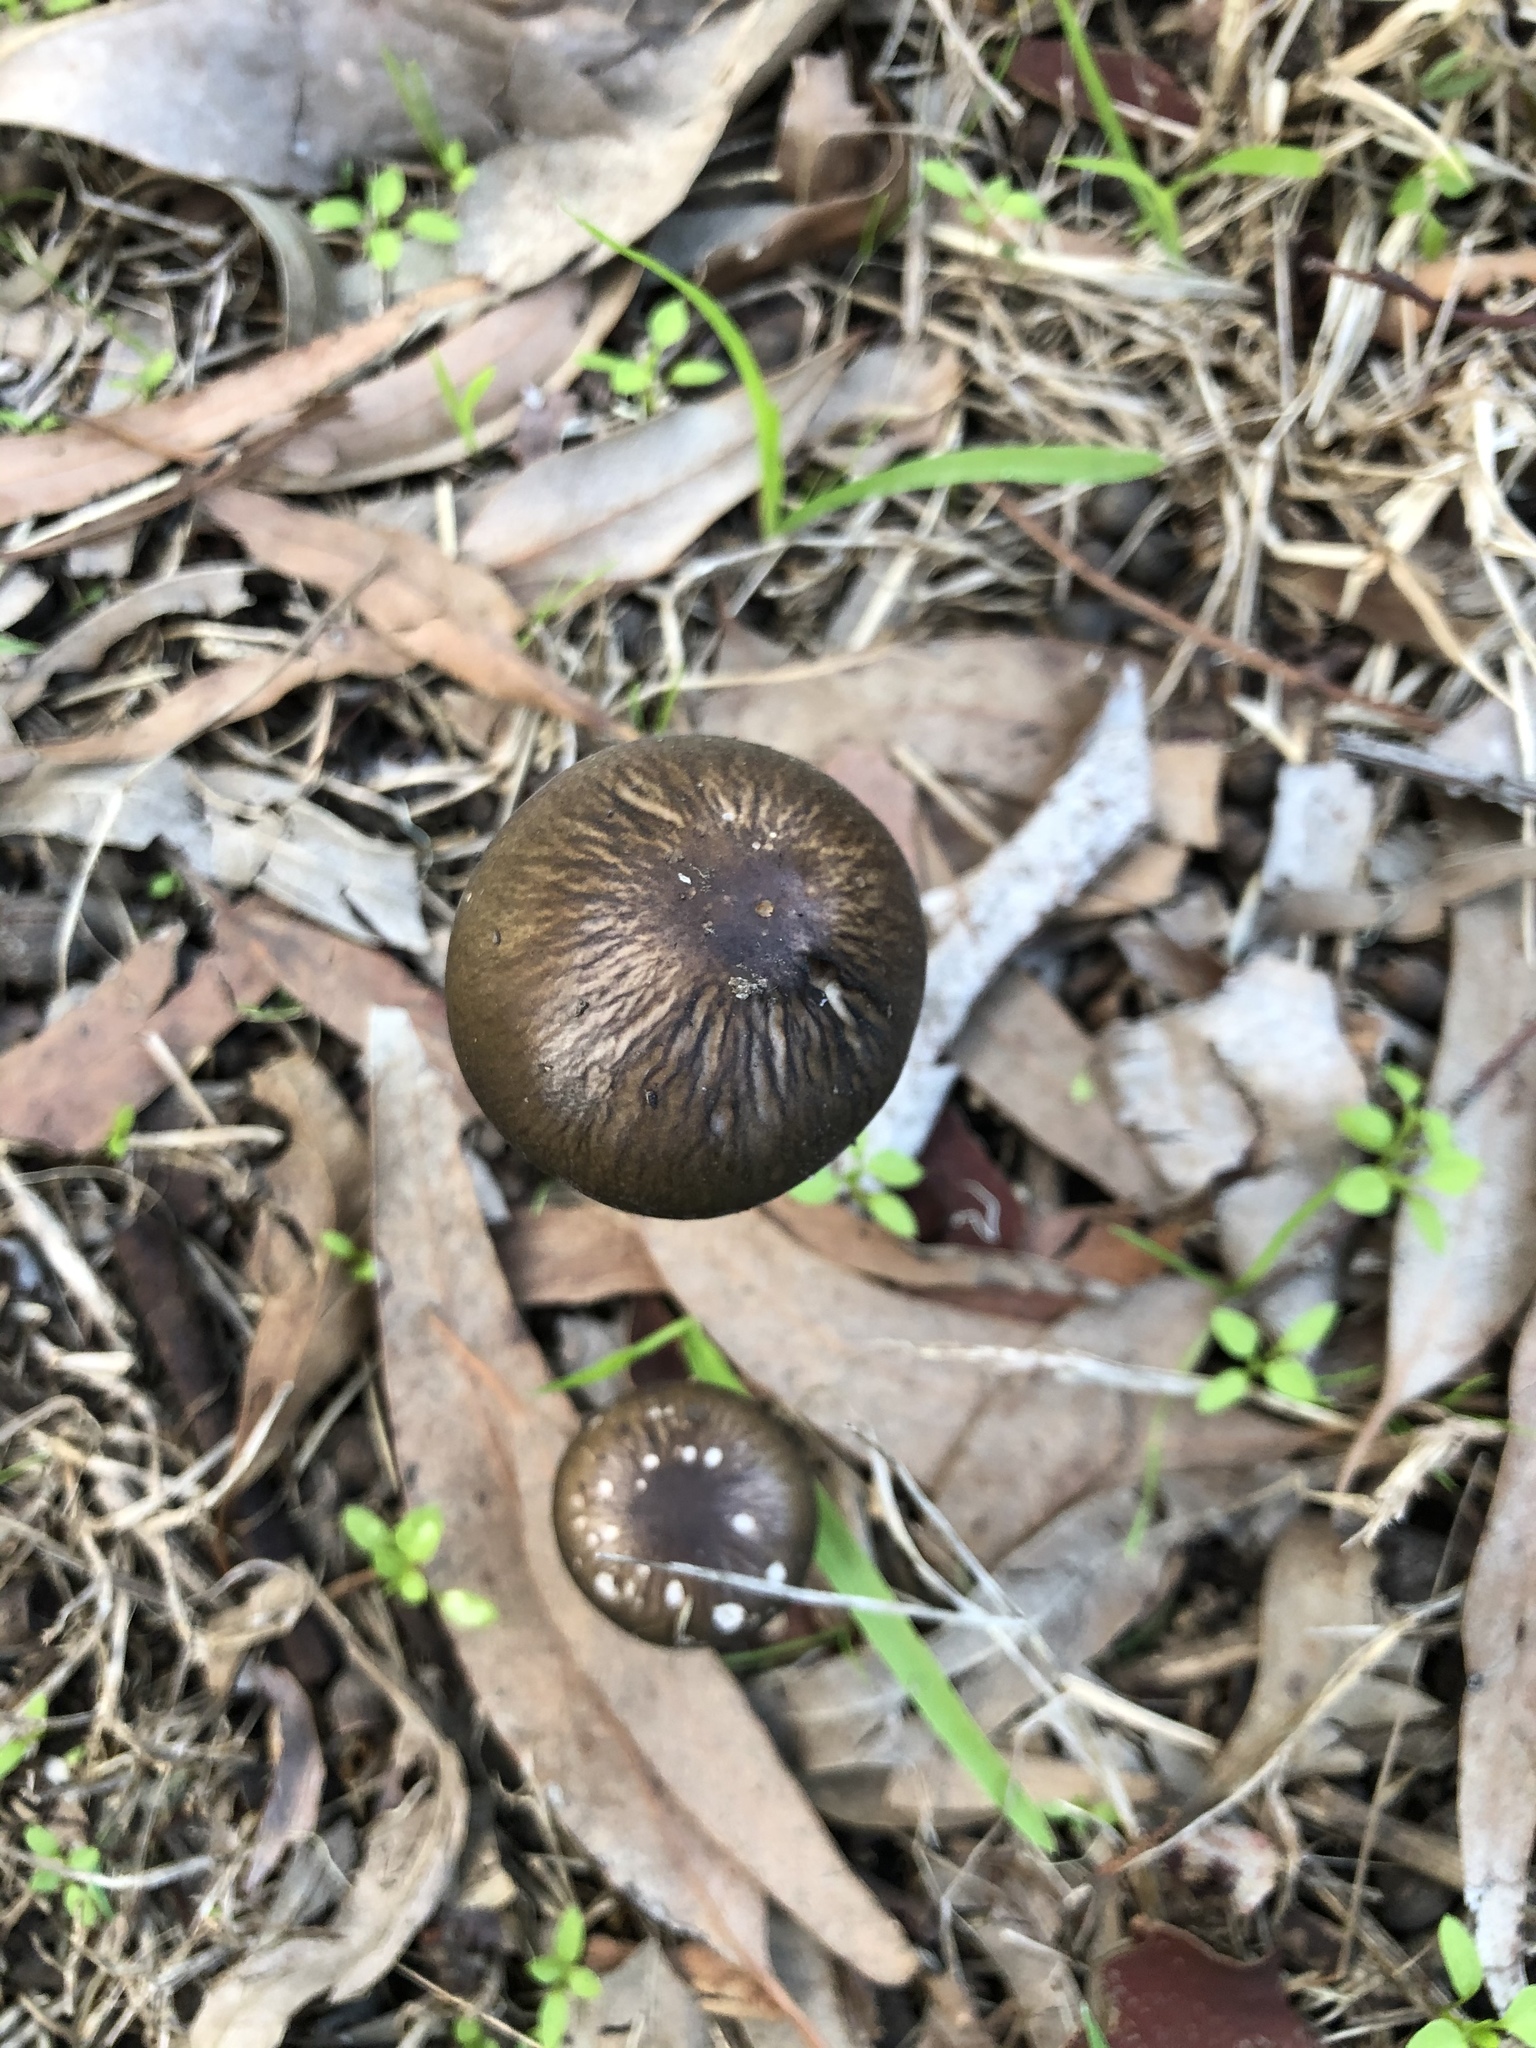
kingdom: Fungi
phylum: Basidiomycota
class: Agaricomycetes
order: Agaricales
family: Physalacriaceae
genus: Hymenopellis
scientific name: Hymenopellis gigaspora
